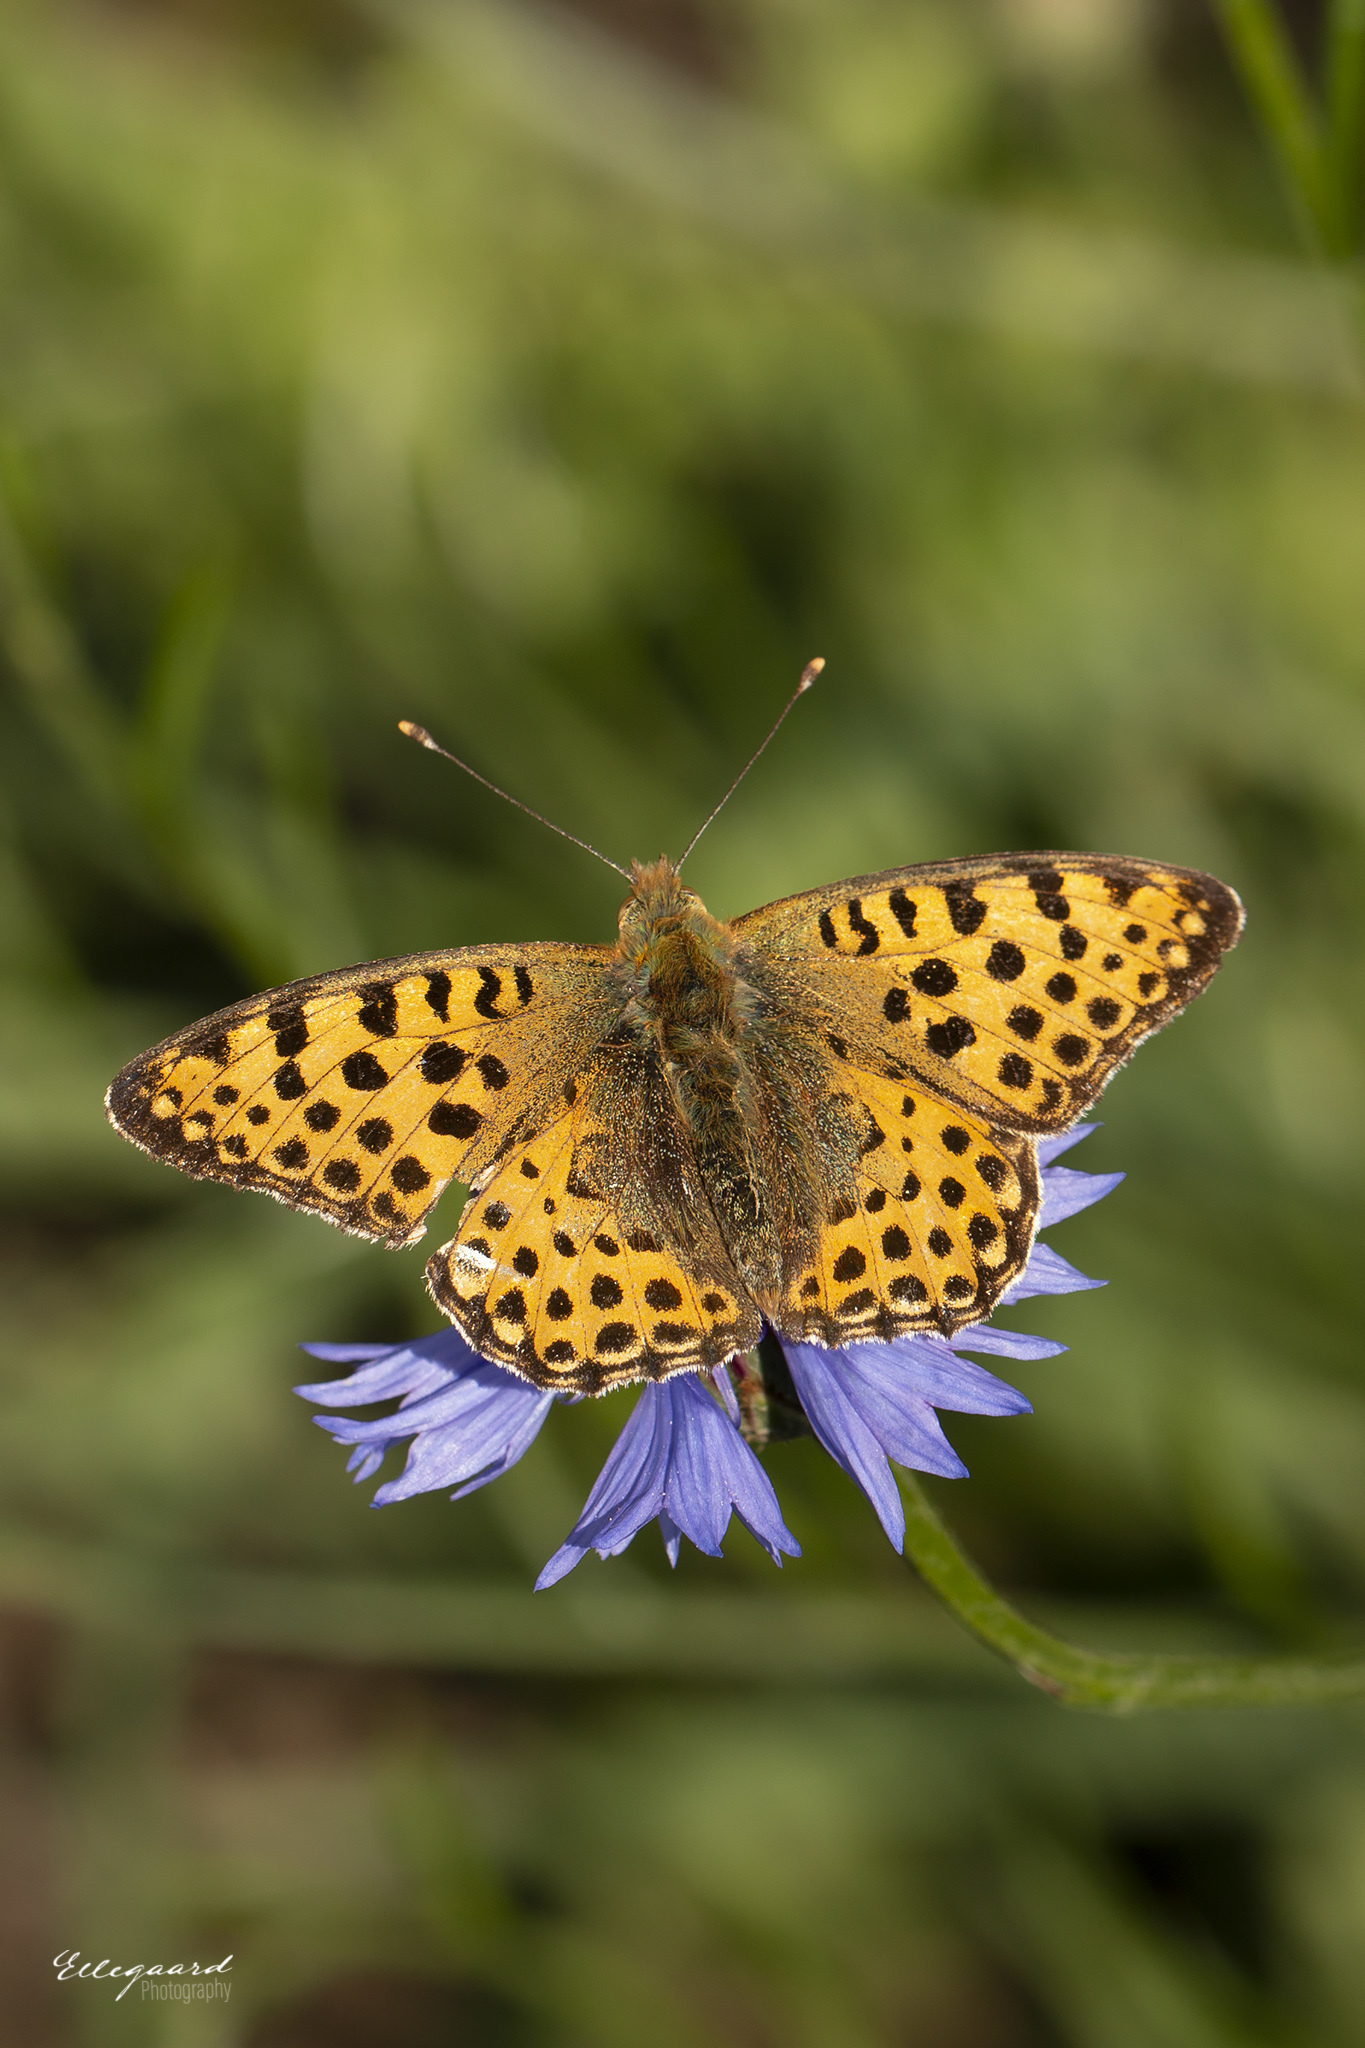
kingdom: Animalia
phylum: Arthropoda
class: Insecta
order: Lepidoptera
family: Nymphalidae
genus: Issoria
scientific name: Issoria lathonia
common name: Queen of spain fritillary
